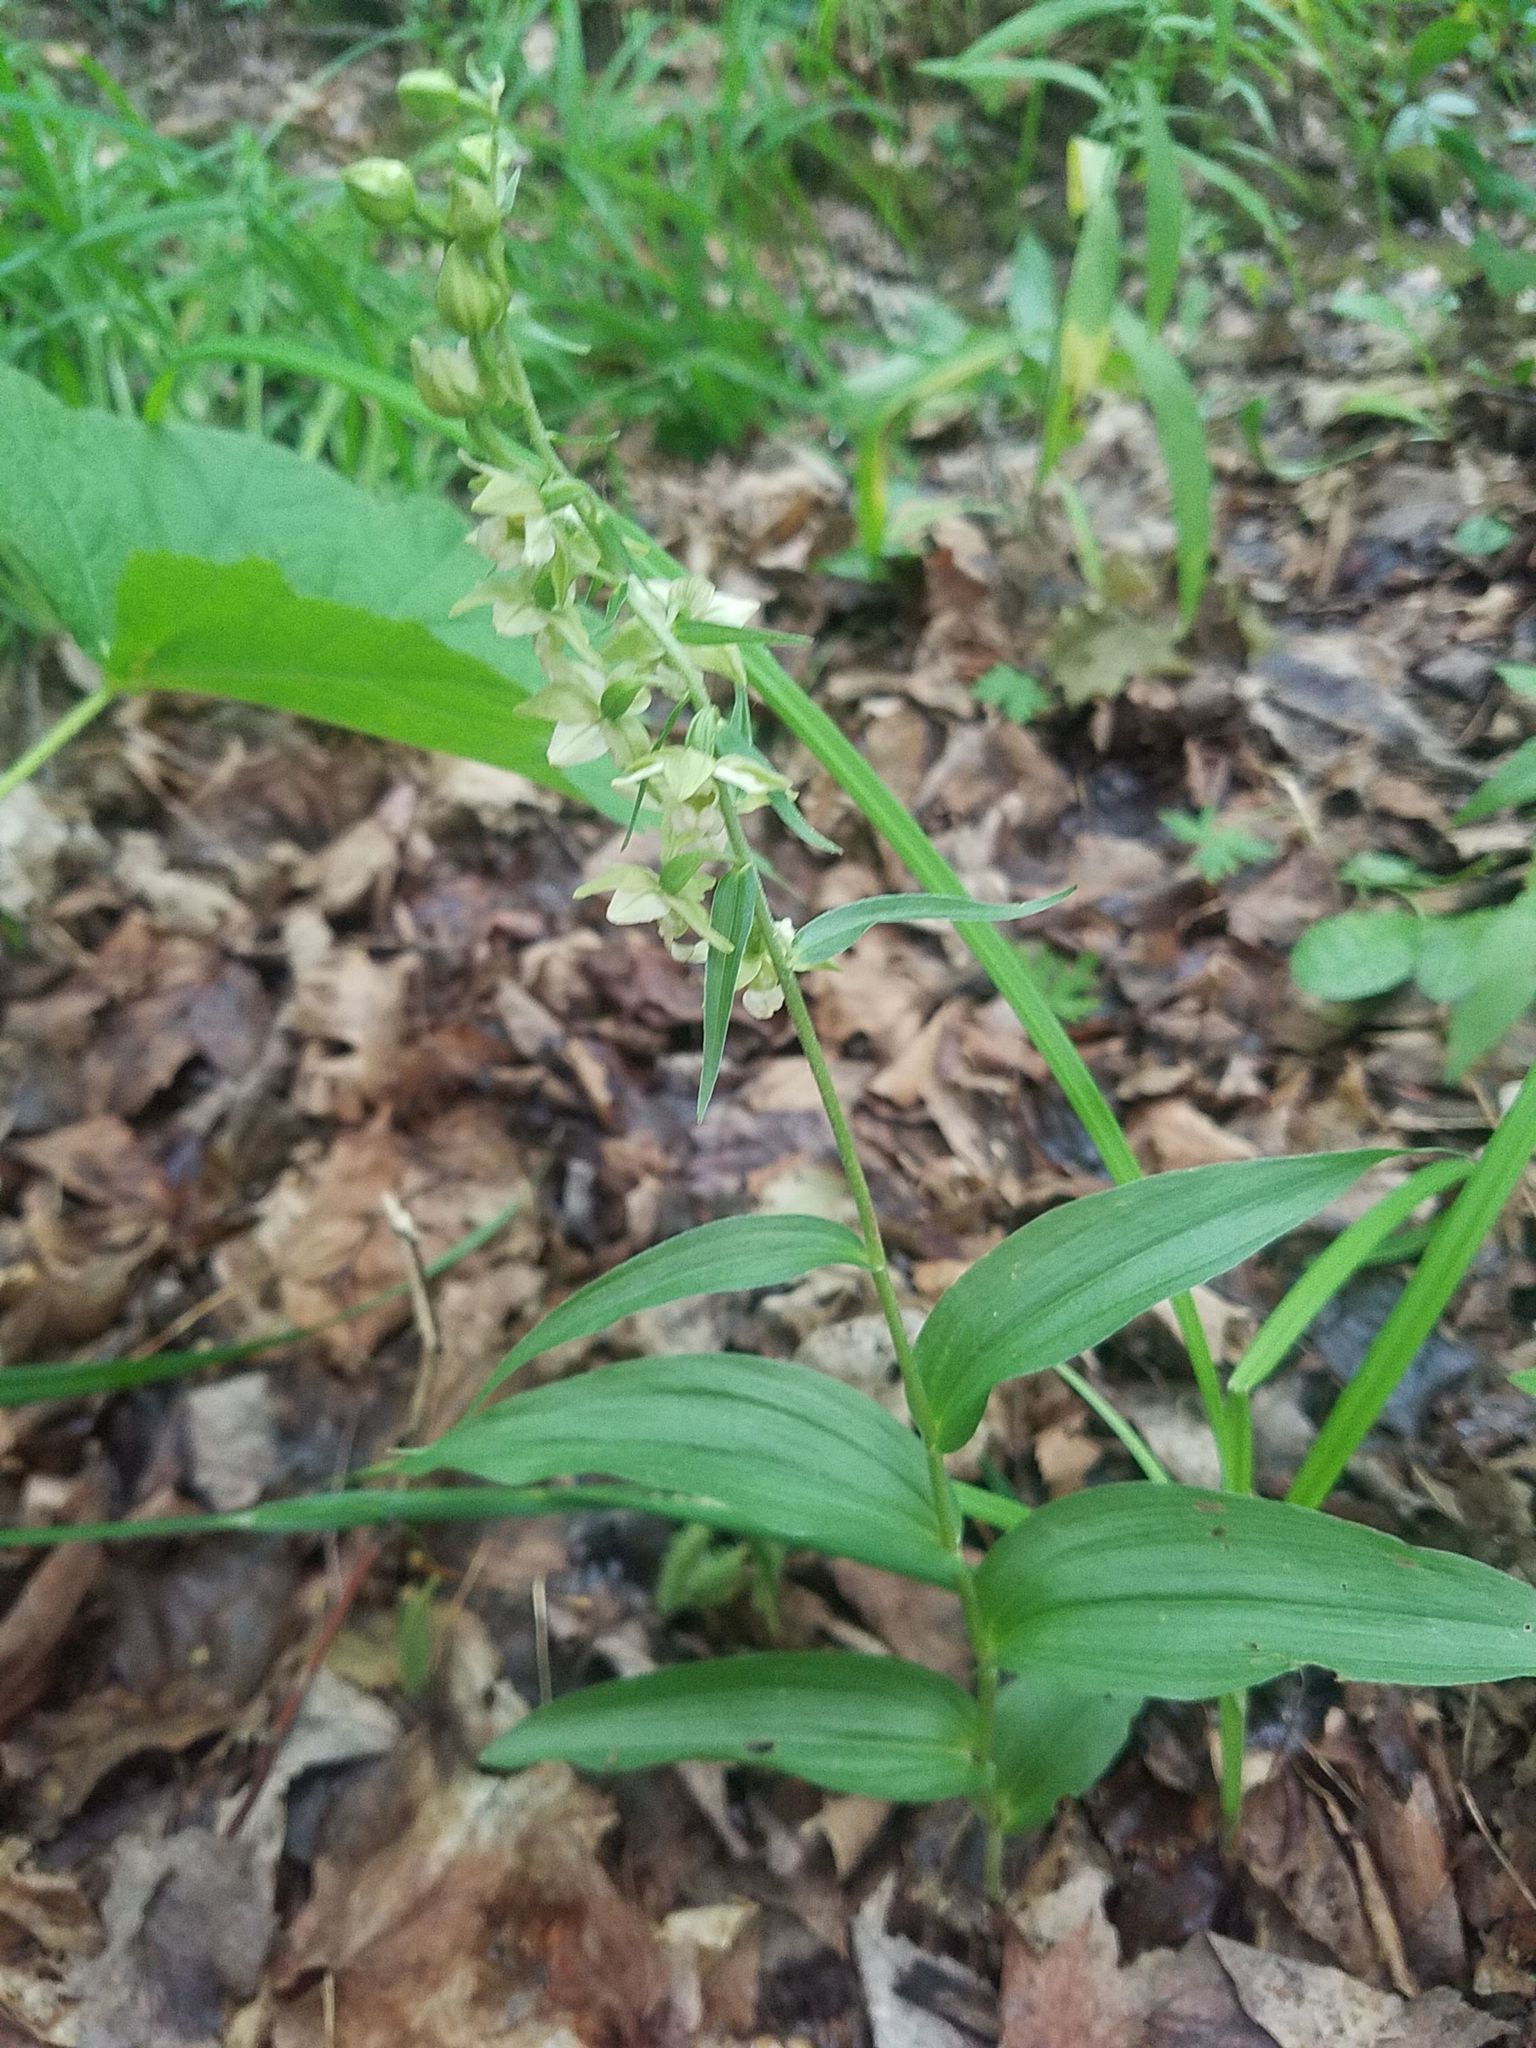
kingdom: Plantae
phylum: Tracheophyta
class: Liliopsida
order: Asparagales
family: Orchidaceae
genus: Epipactis
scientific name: Epipactis helleborine
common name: Broad-leaved helleborine
